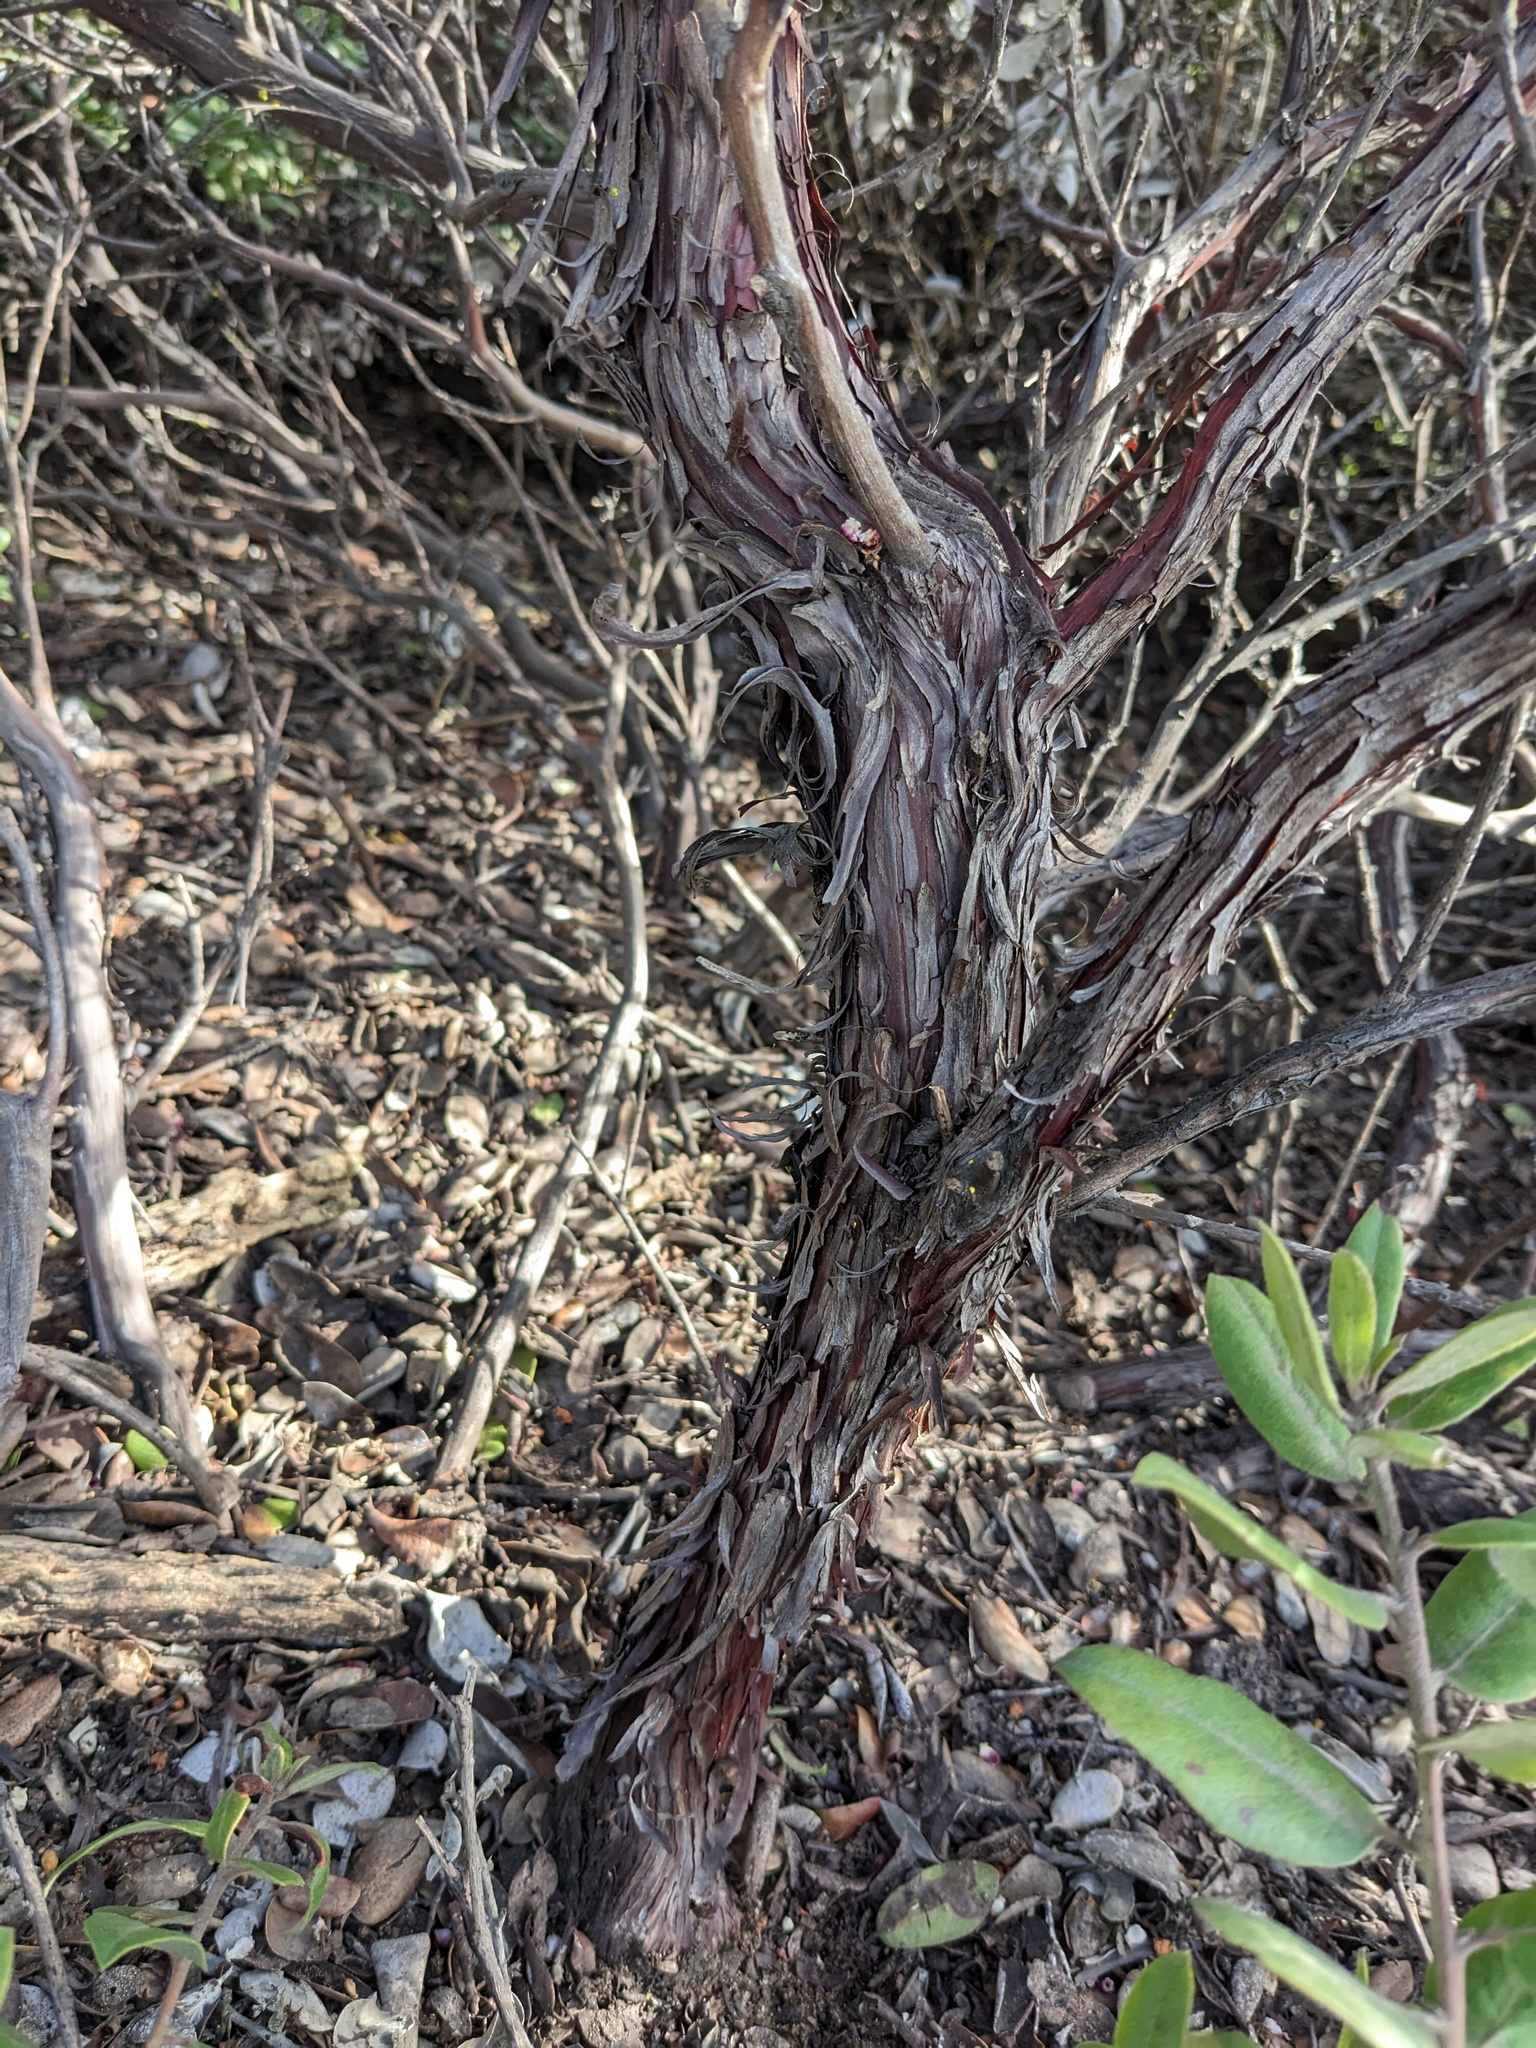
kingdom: Plantae
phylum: Tracheophyta
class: Magnoliopsida
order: Ericales
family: Ericaceae
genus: Arctostaphylos
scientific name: Arctostaphylos tomentosa
